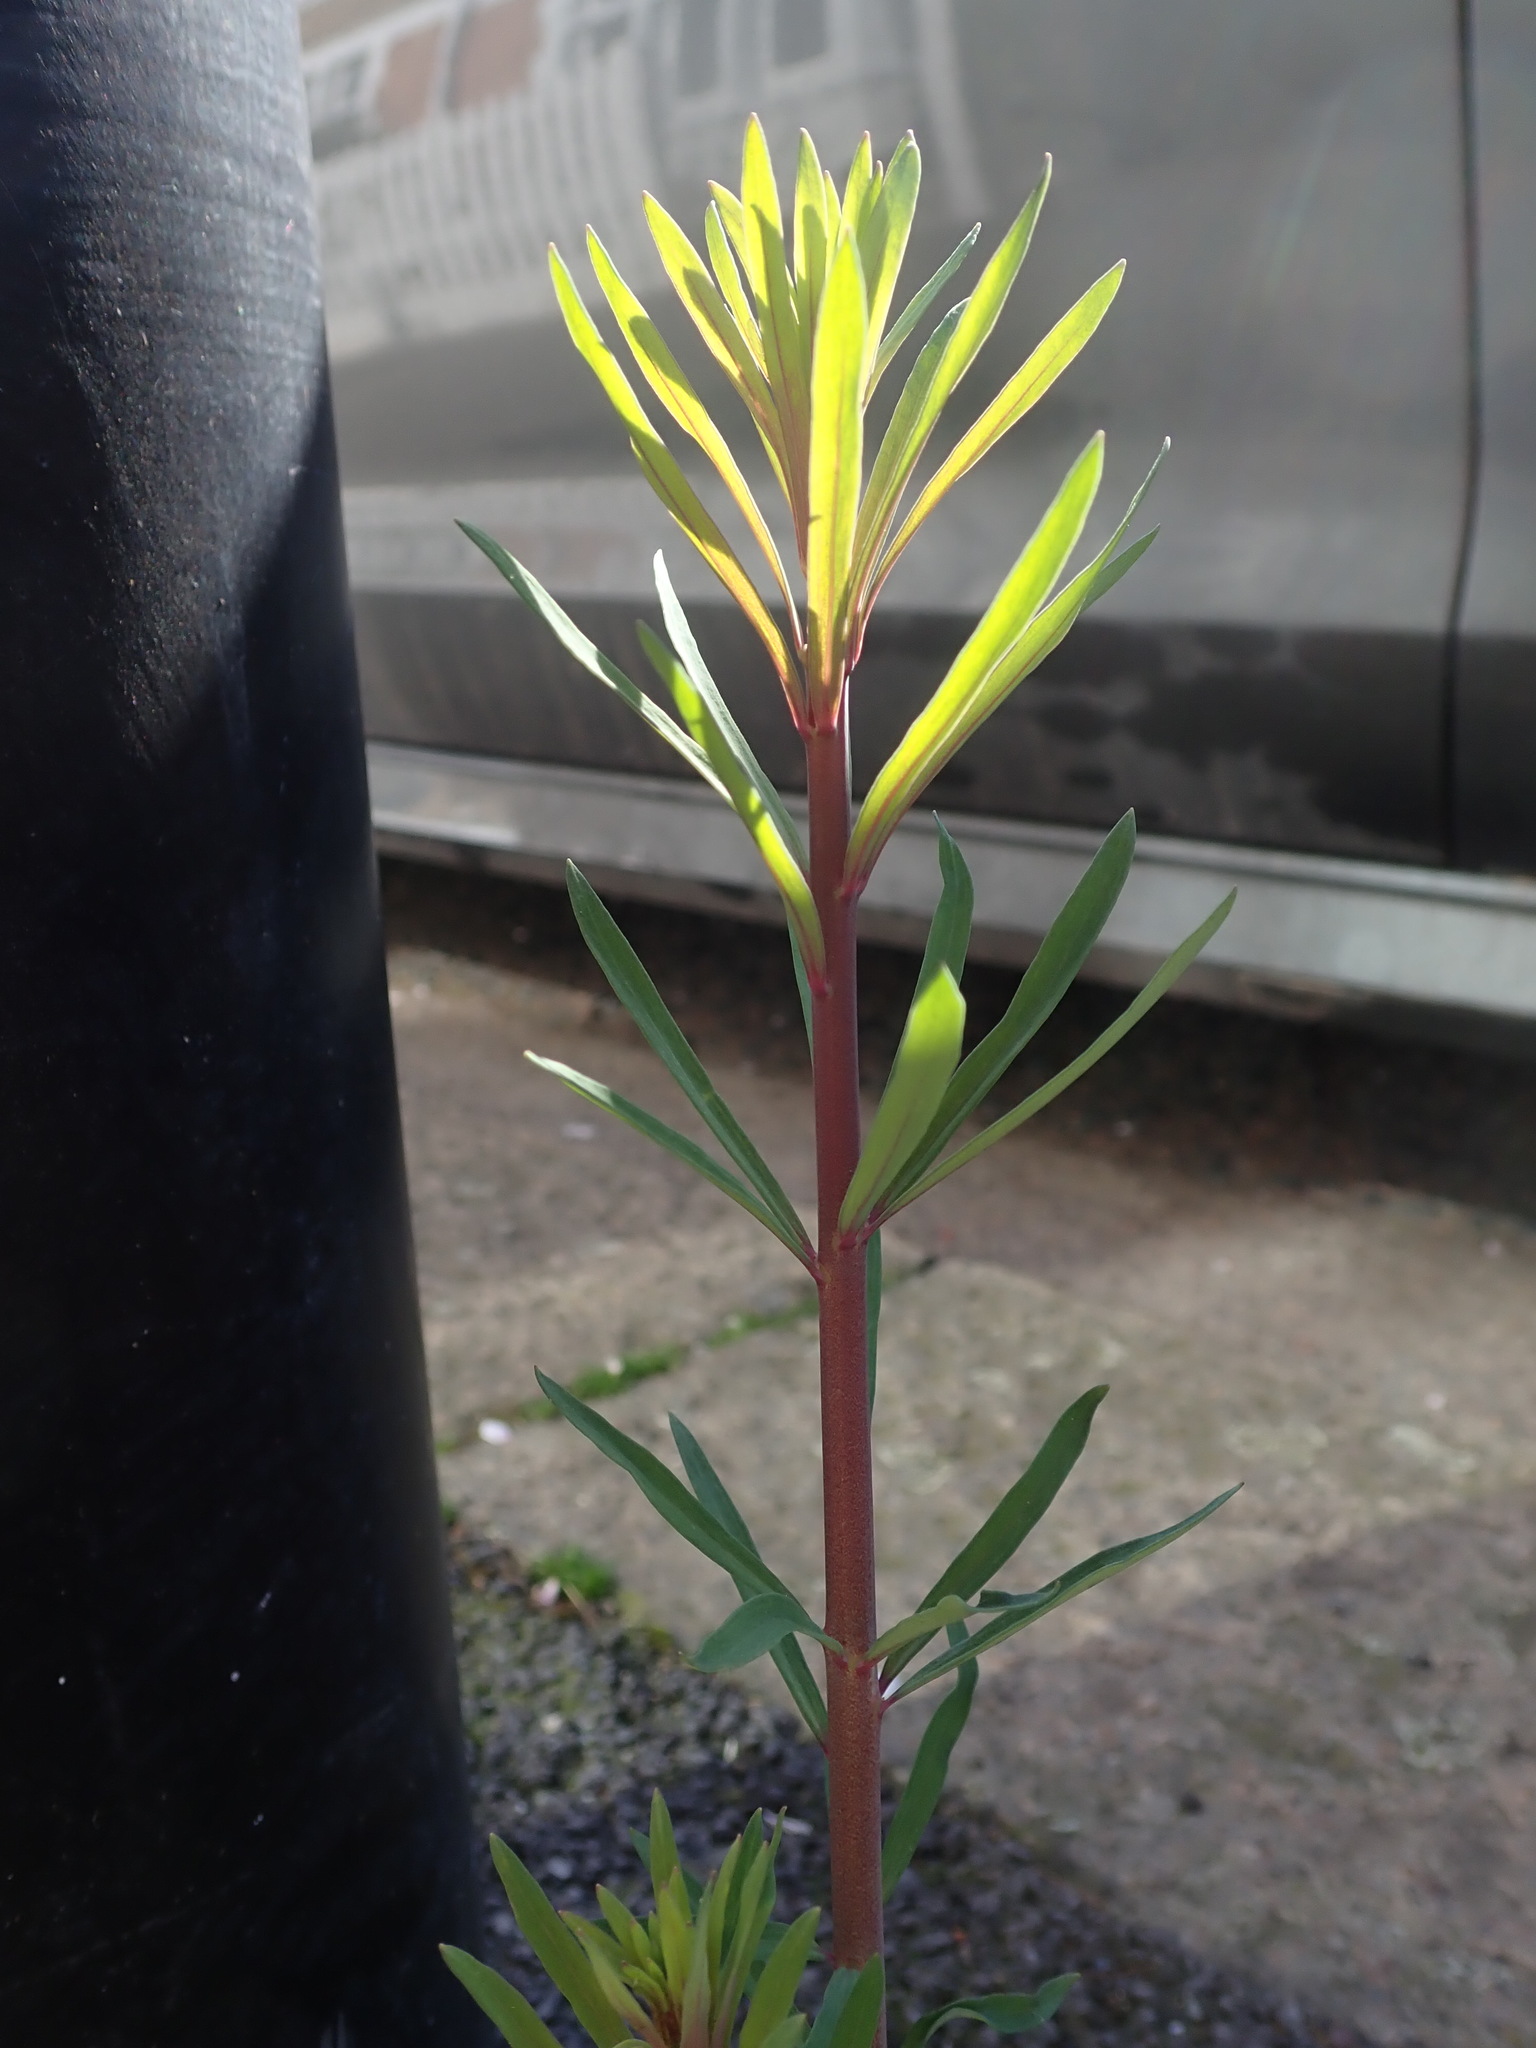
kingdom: Plantae
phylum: Tracheophyta
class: Magnoliopsida
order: Lamiales
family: Plantaginaceae
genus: Linaria
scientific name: Linaria purpurea
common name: Purple toadflax
